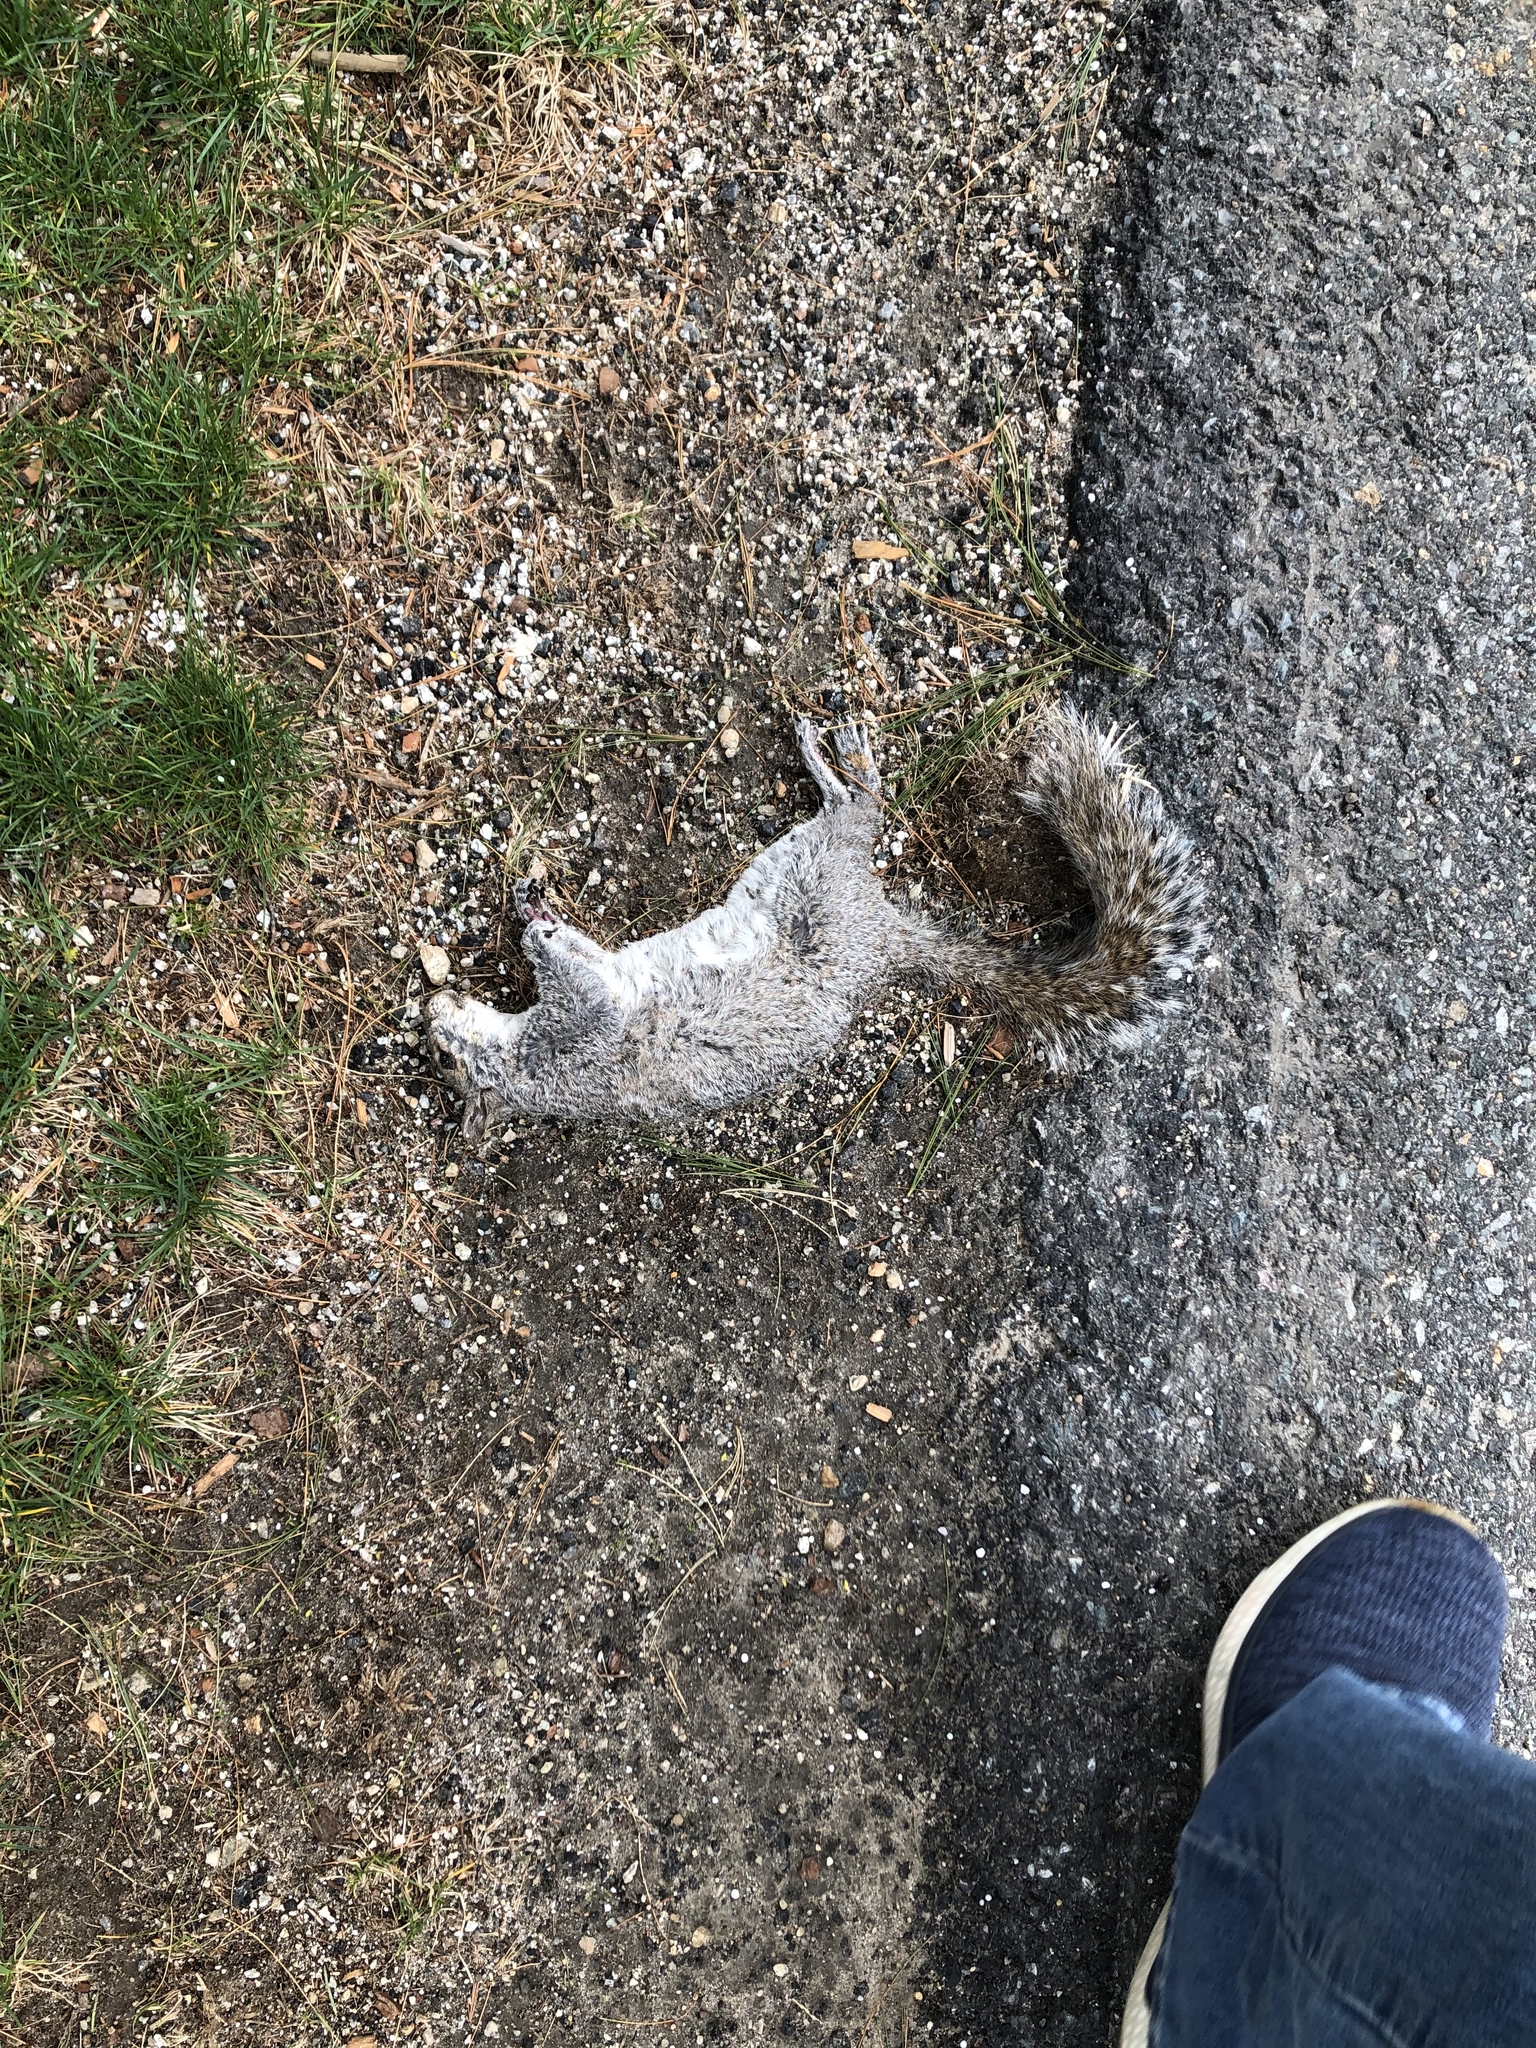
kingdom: Animalia
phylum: Chordata
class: Mammalia
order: Rodentia
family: Sciuridae
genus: Sciurus
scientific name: Sciurus carolinensis
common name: Eastern gray squirrel
